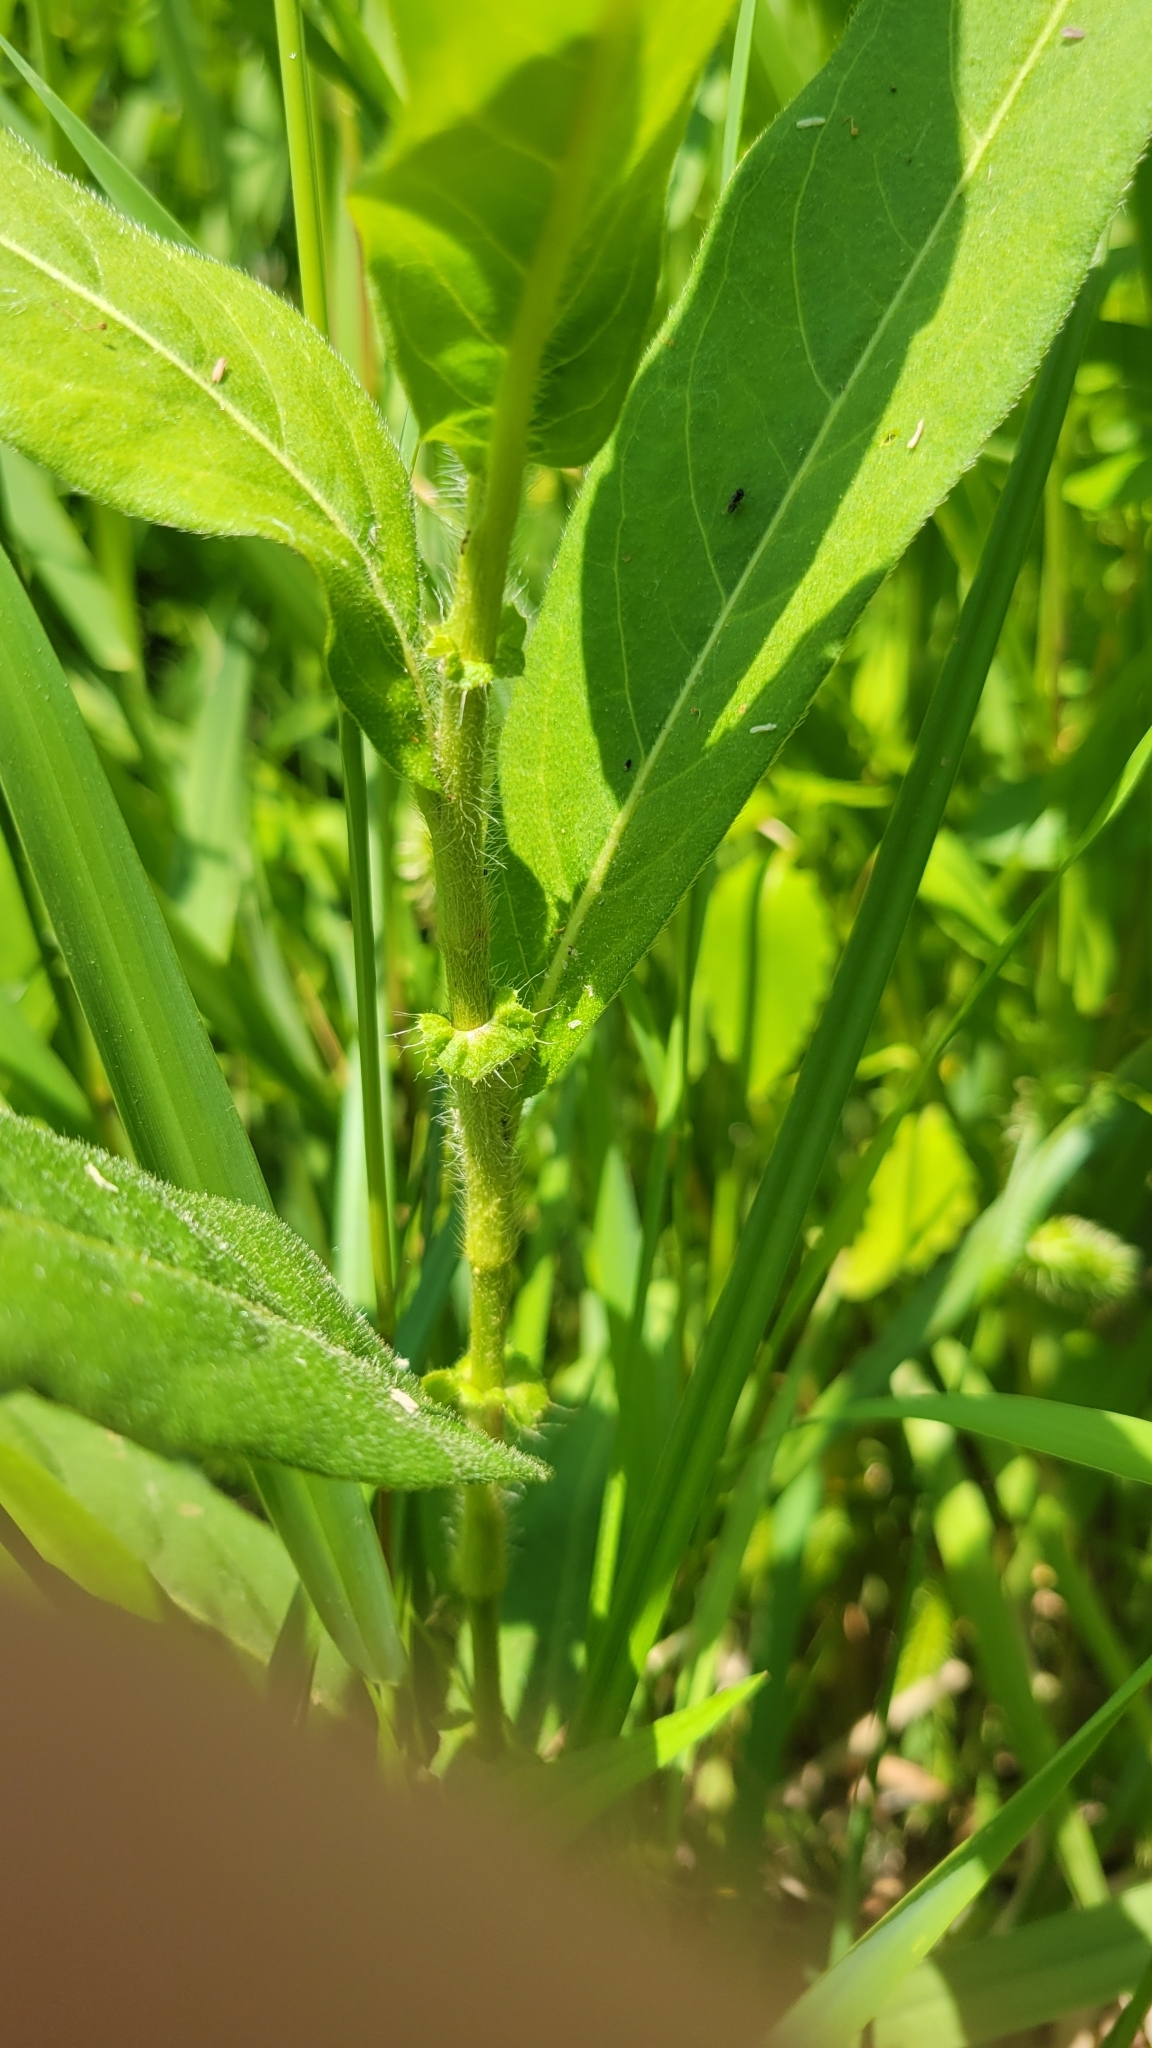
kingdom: Plantae
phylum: Tracheophyta
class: Magnoliopsida
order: Caryophyllales
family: Polygonaceae
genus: Persicaria
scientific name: Persicaria amphibia
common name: Amphibious bistort
